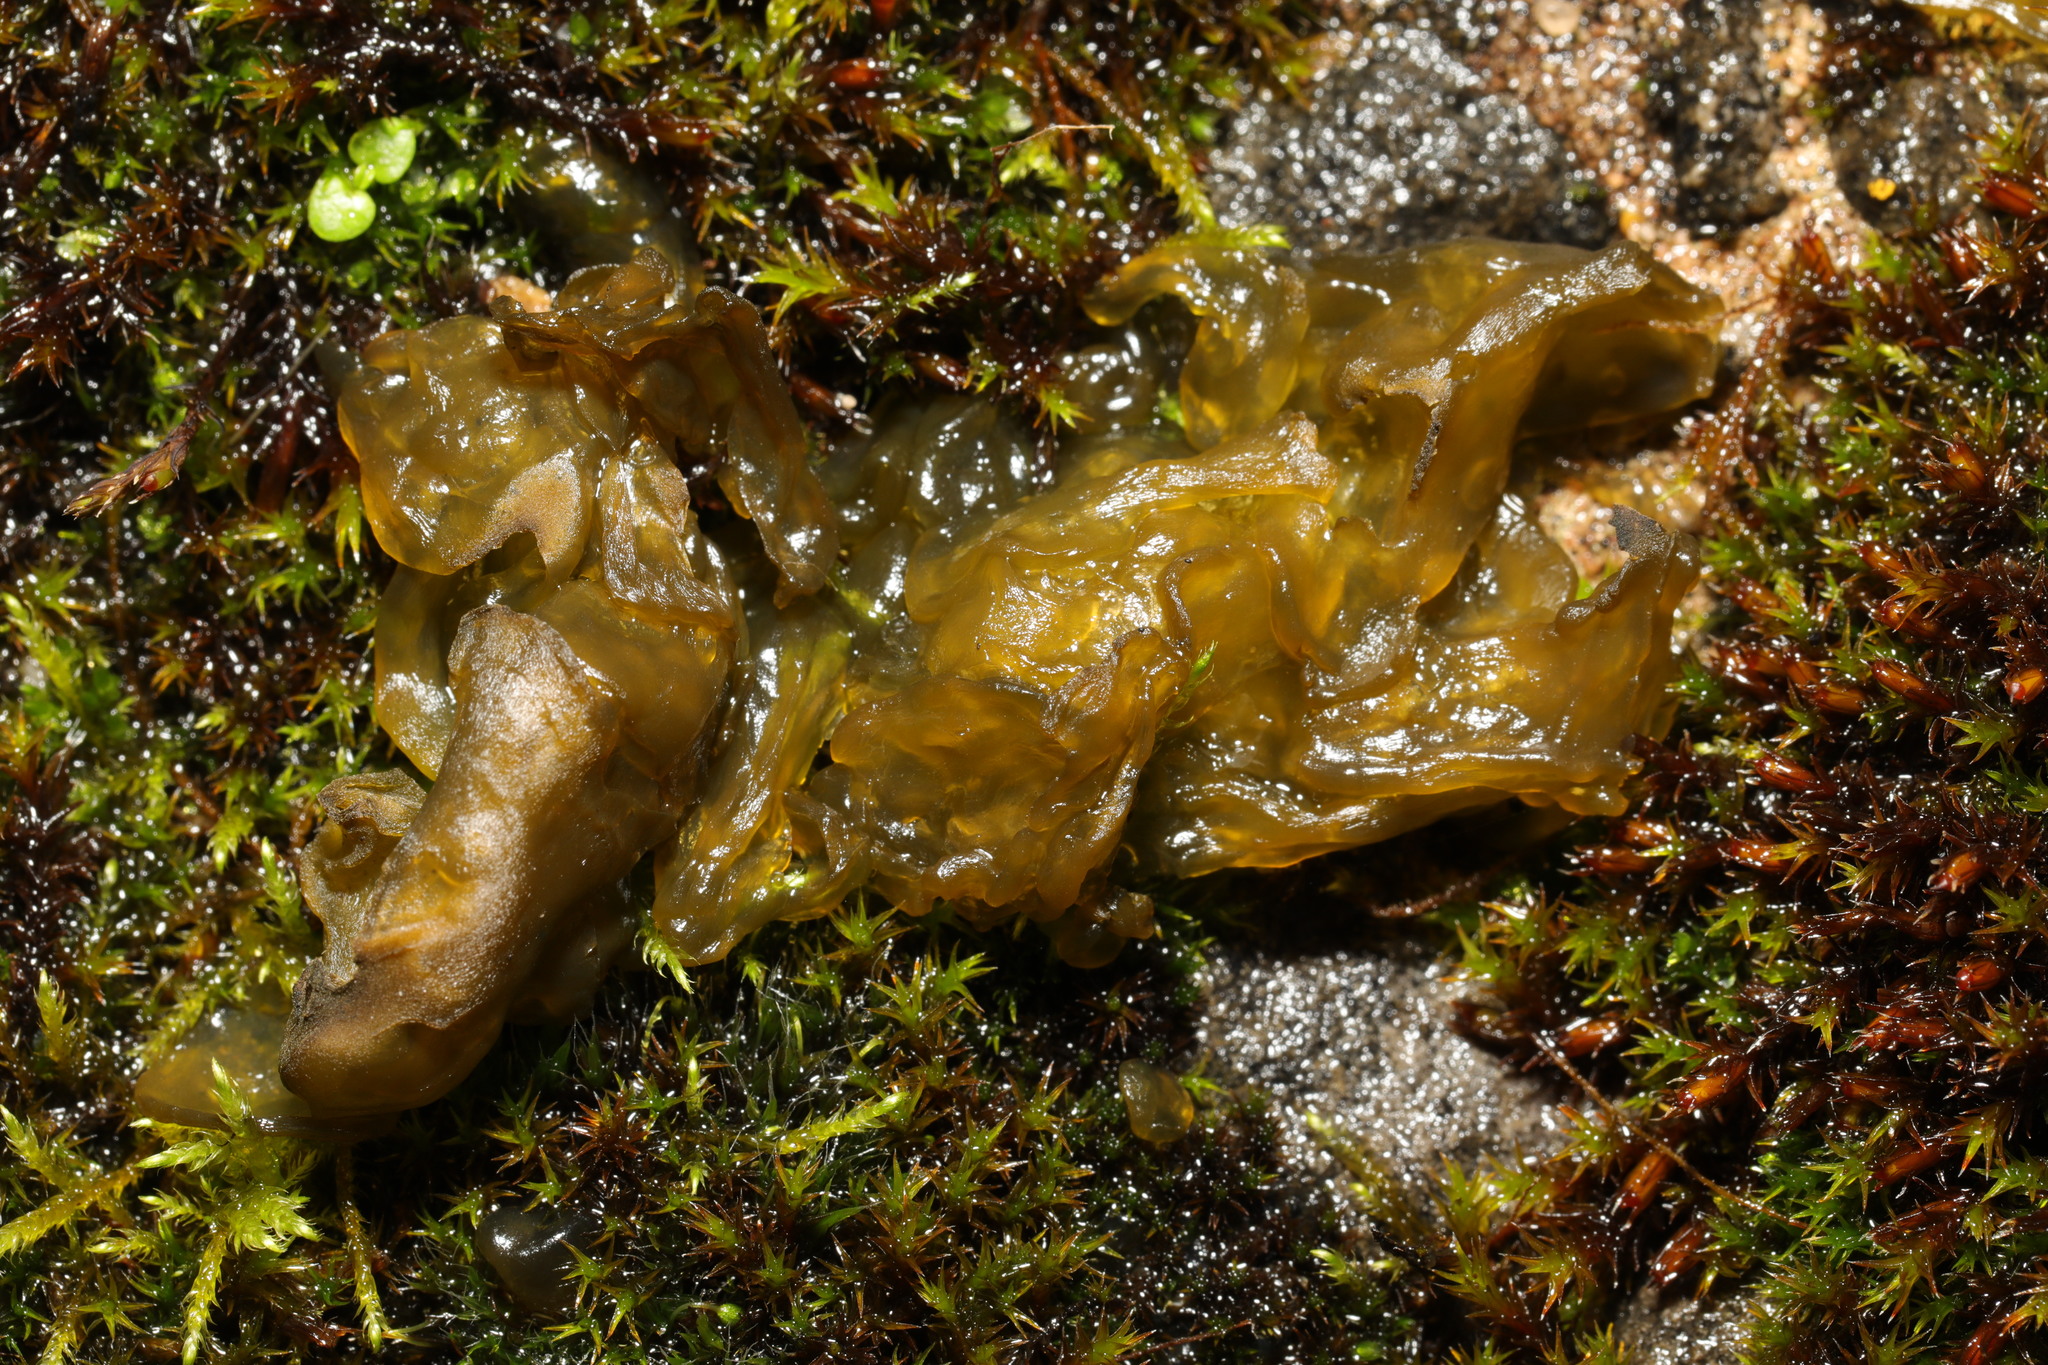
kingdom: Bacteria
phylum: Cyanobacteria
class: Cyanobacteriia
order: Cyanobacteriales
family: Nostocaceae
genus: Nostoc
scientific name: Nostoc commune
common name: Star jelly
